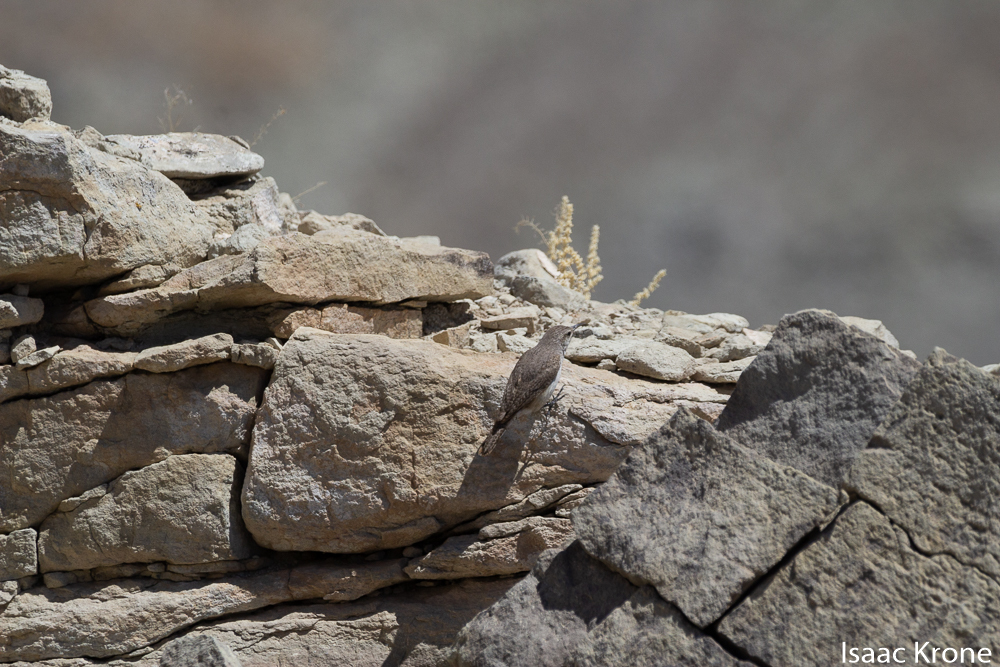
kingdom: Animalia
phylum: Chordata
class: Aves
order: Passeriformes
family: Troglodytidae
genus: Salpinctes
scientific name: Salpinctes obsoletus
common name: Rock wren
